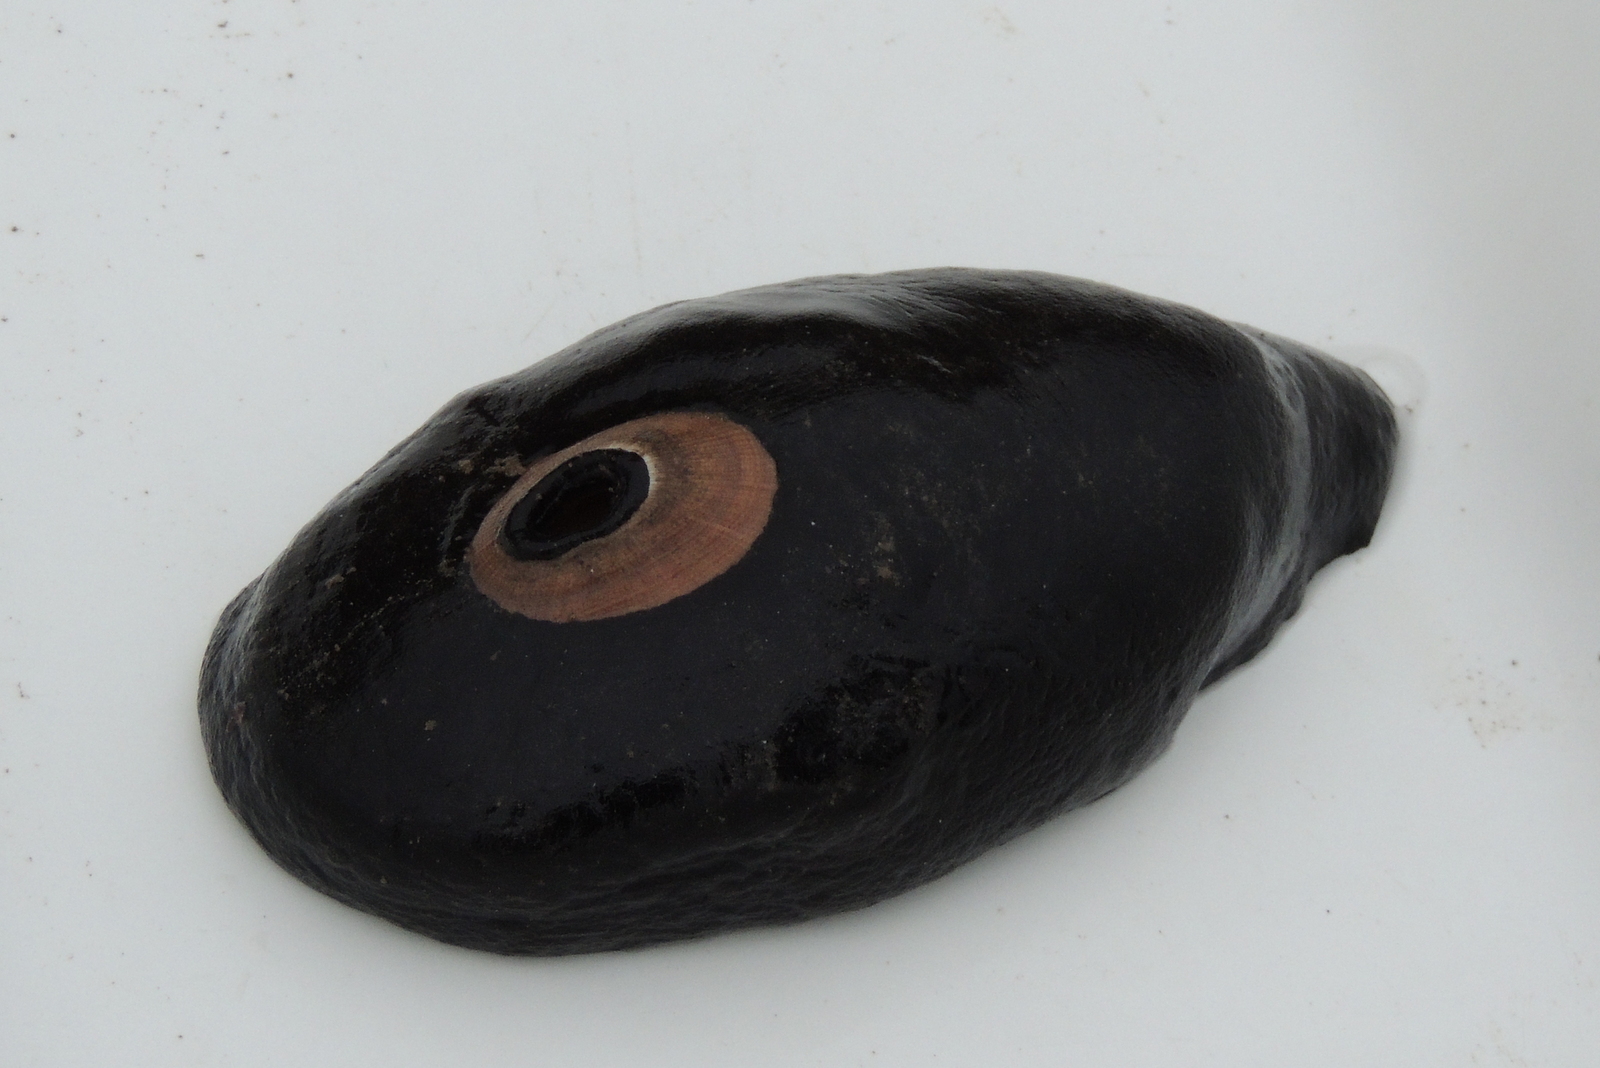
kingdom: Animalia
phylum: Mollusca
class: Gastropoda
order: Lepetellida
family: Fissurellidae
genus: Megathura
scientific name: Megathura crenulata
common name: Giant keyhole limpet
